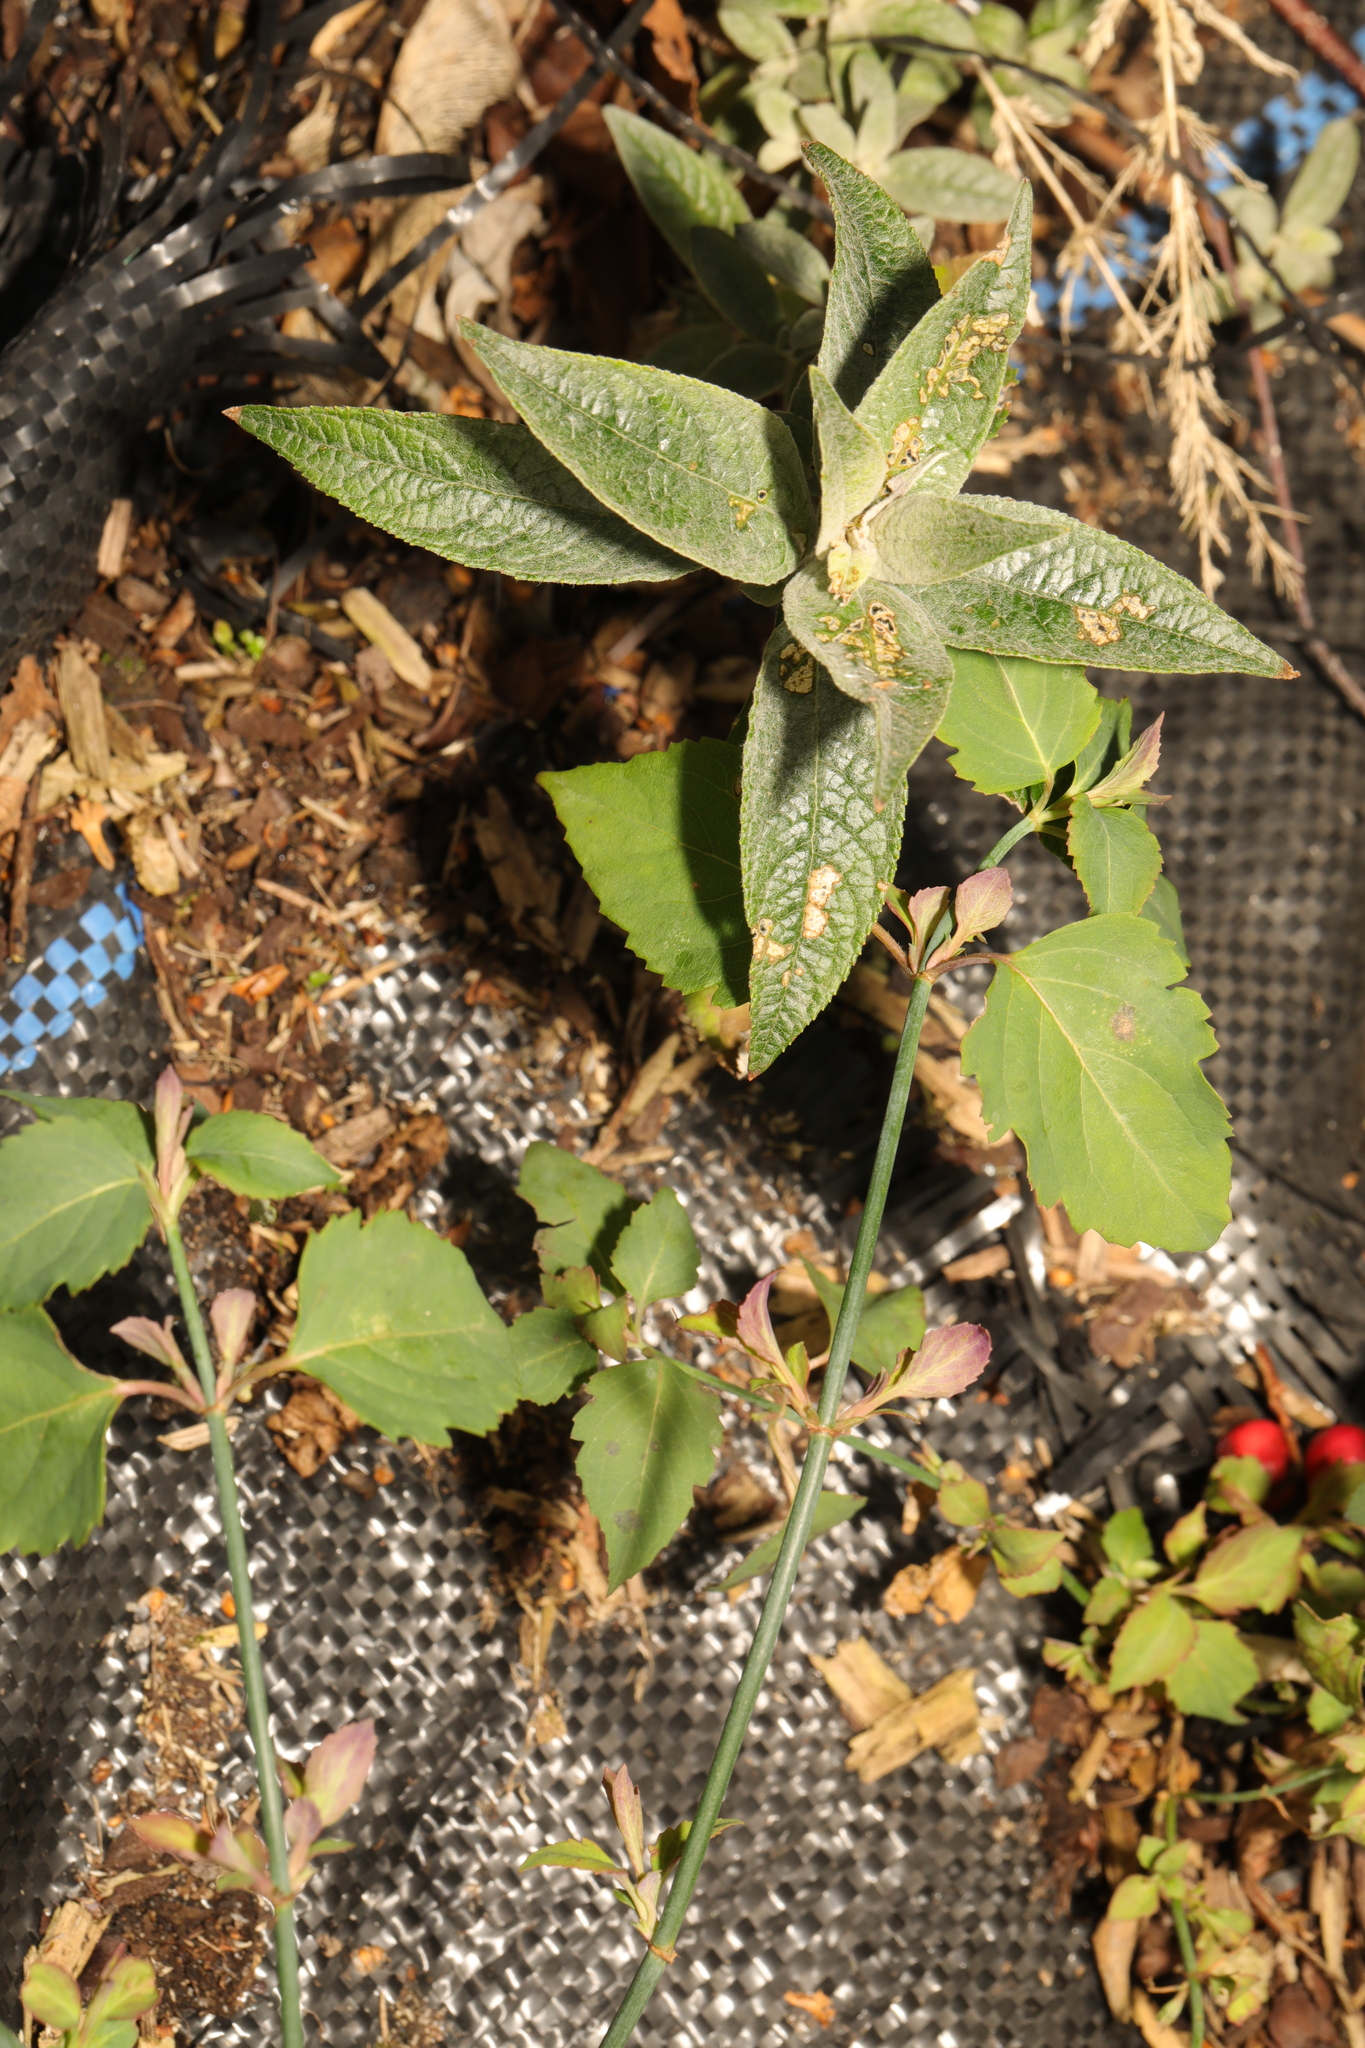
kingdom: Plantae
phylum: Tracheophyta
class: Magnoliopsida
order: Lamiales
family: Scrophulariaceae
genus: Buddleja
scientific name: Buddleja davidii
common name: Butterfly-bush
